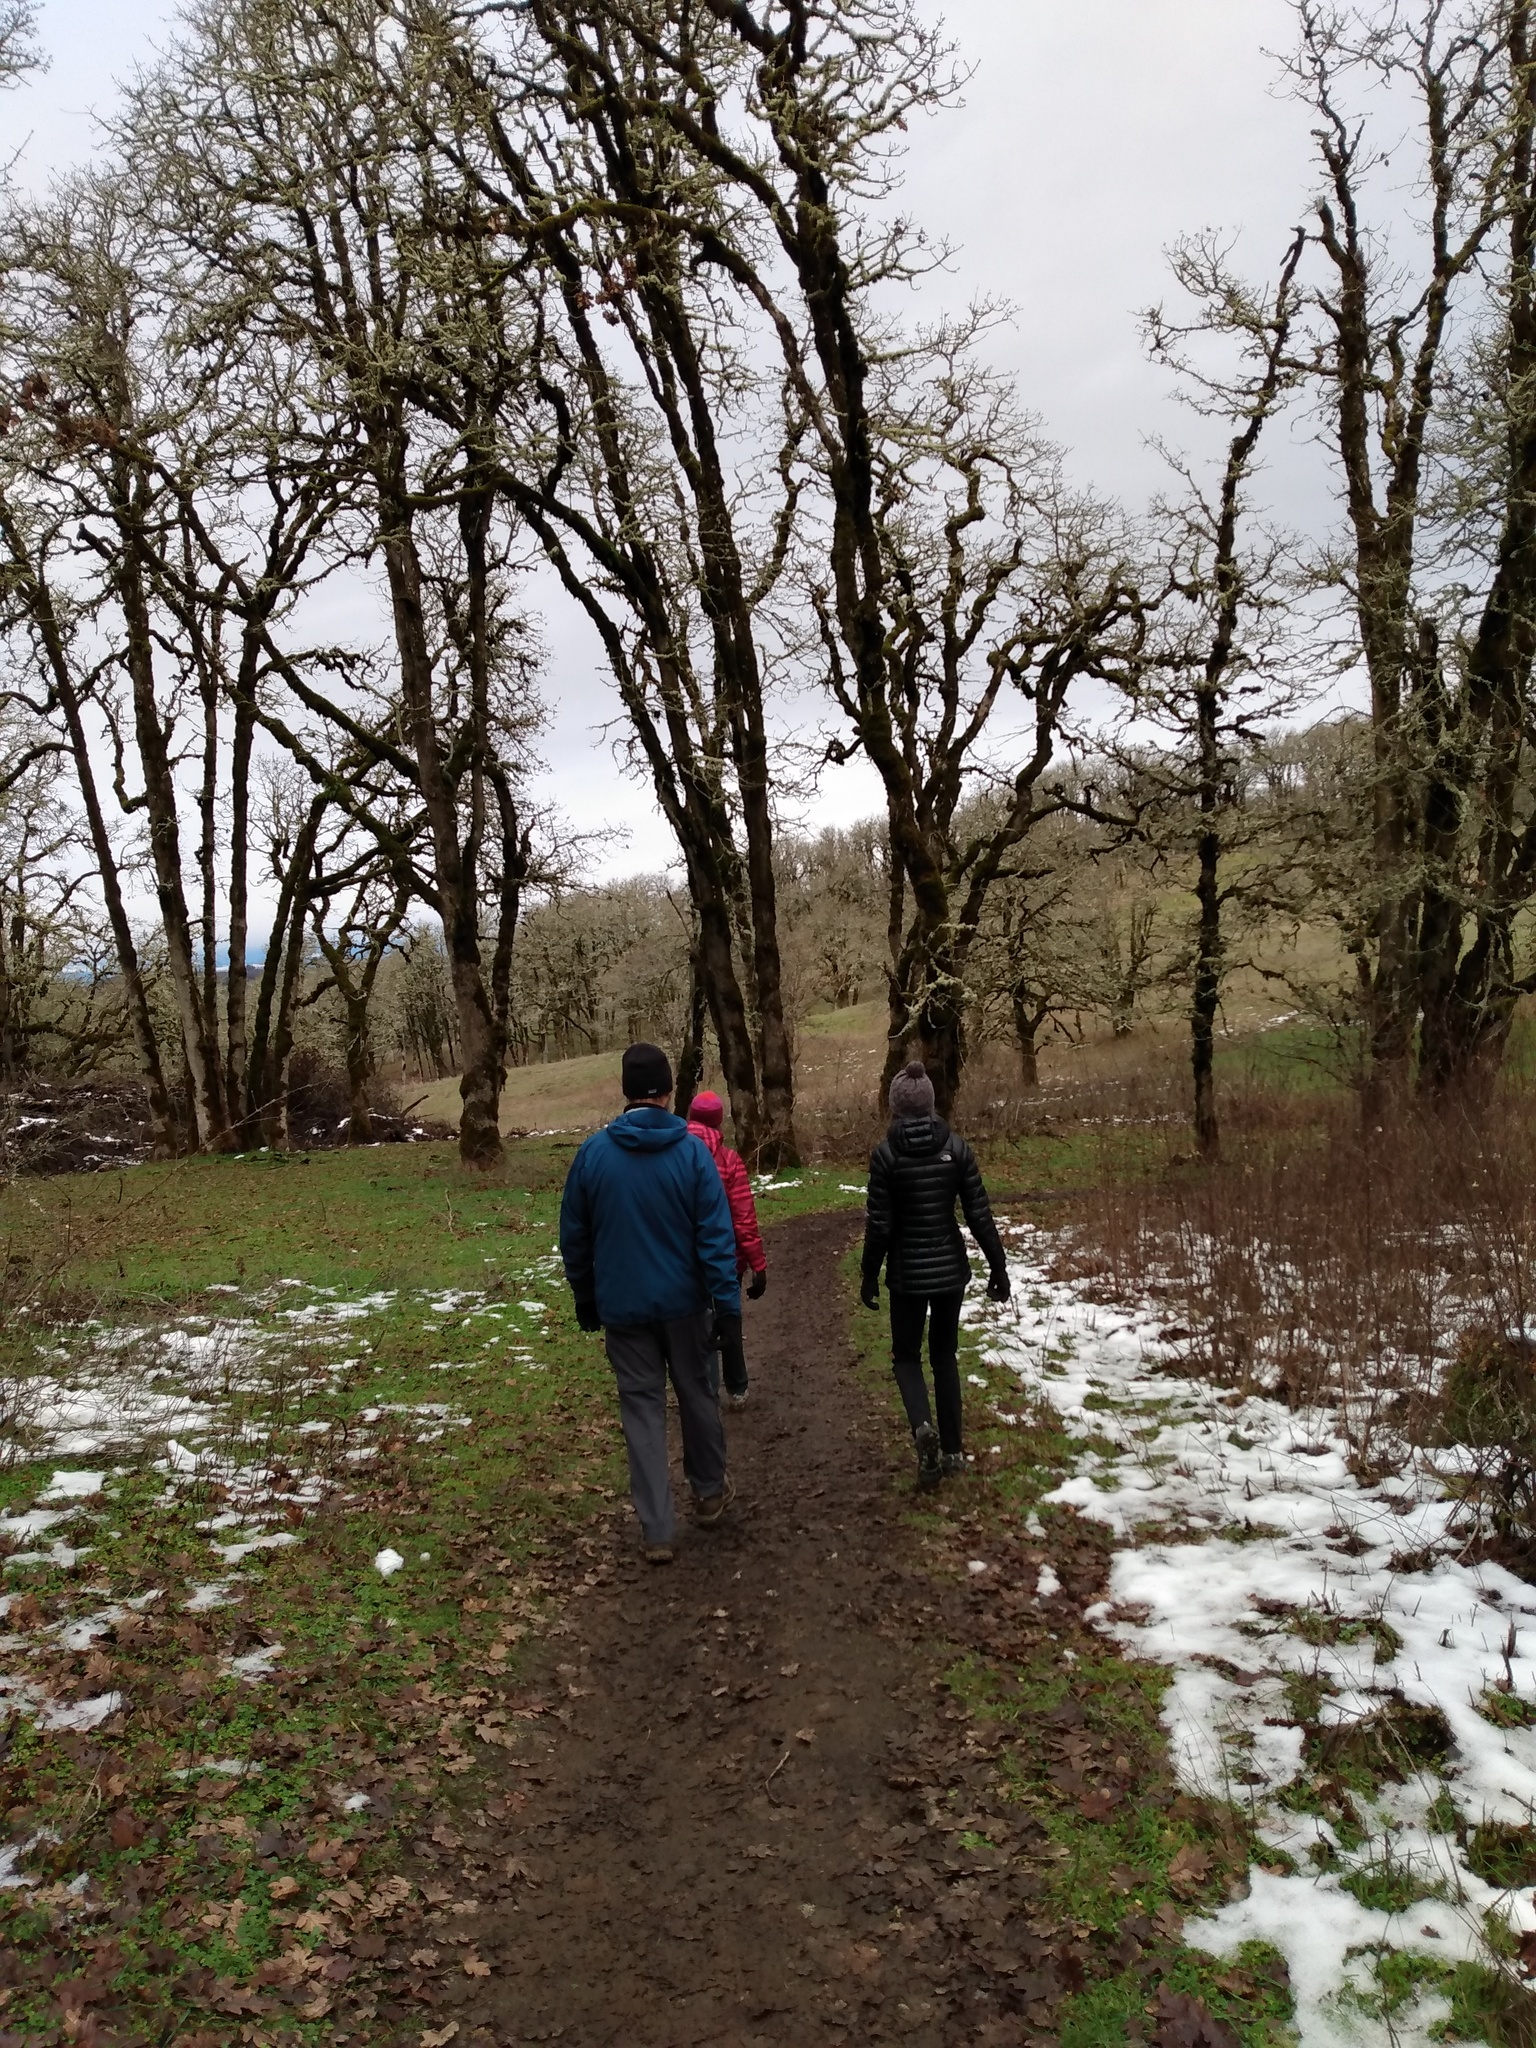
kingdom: Plantae
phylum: Tracheophyta
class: Magnoliopsida
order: Fagales
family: Fagaceae
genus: Quercus
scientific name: Quercus garryana
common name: Garry oak
